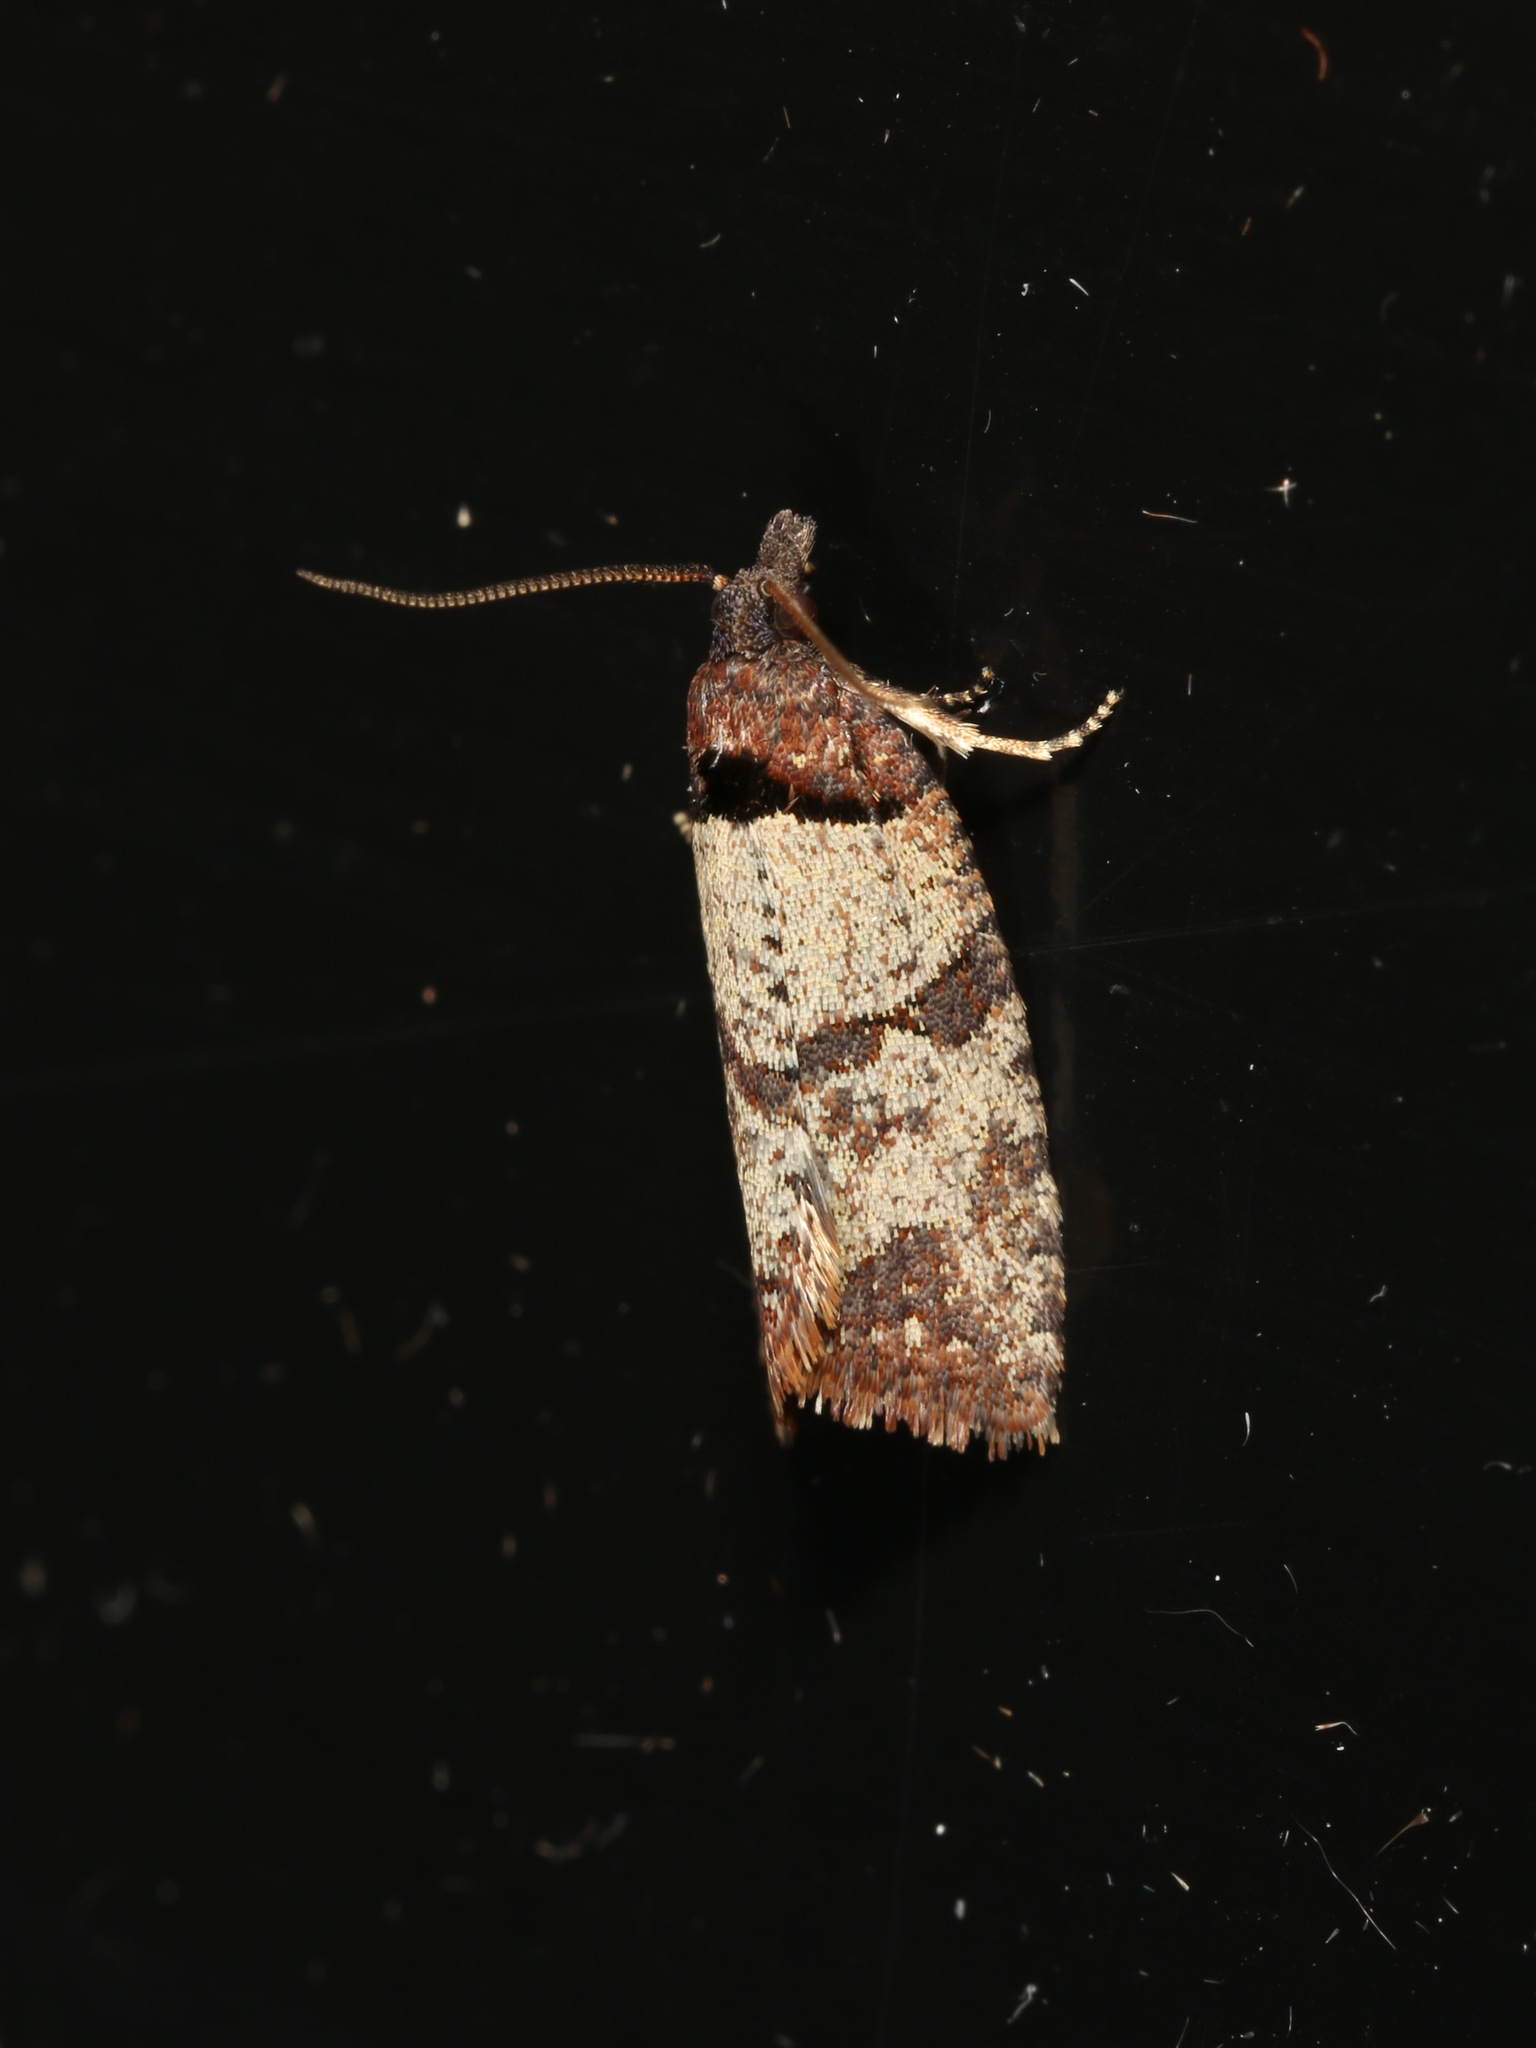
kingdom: Animalia
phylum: Arthropoda
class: Insecta
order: Lepidoptera
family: Tortricidae
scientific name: Tortricidae
